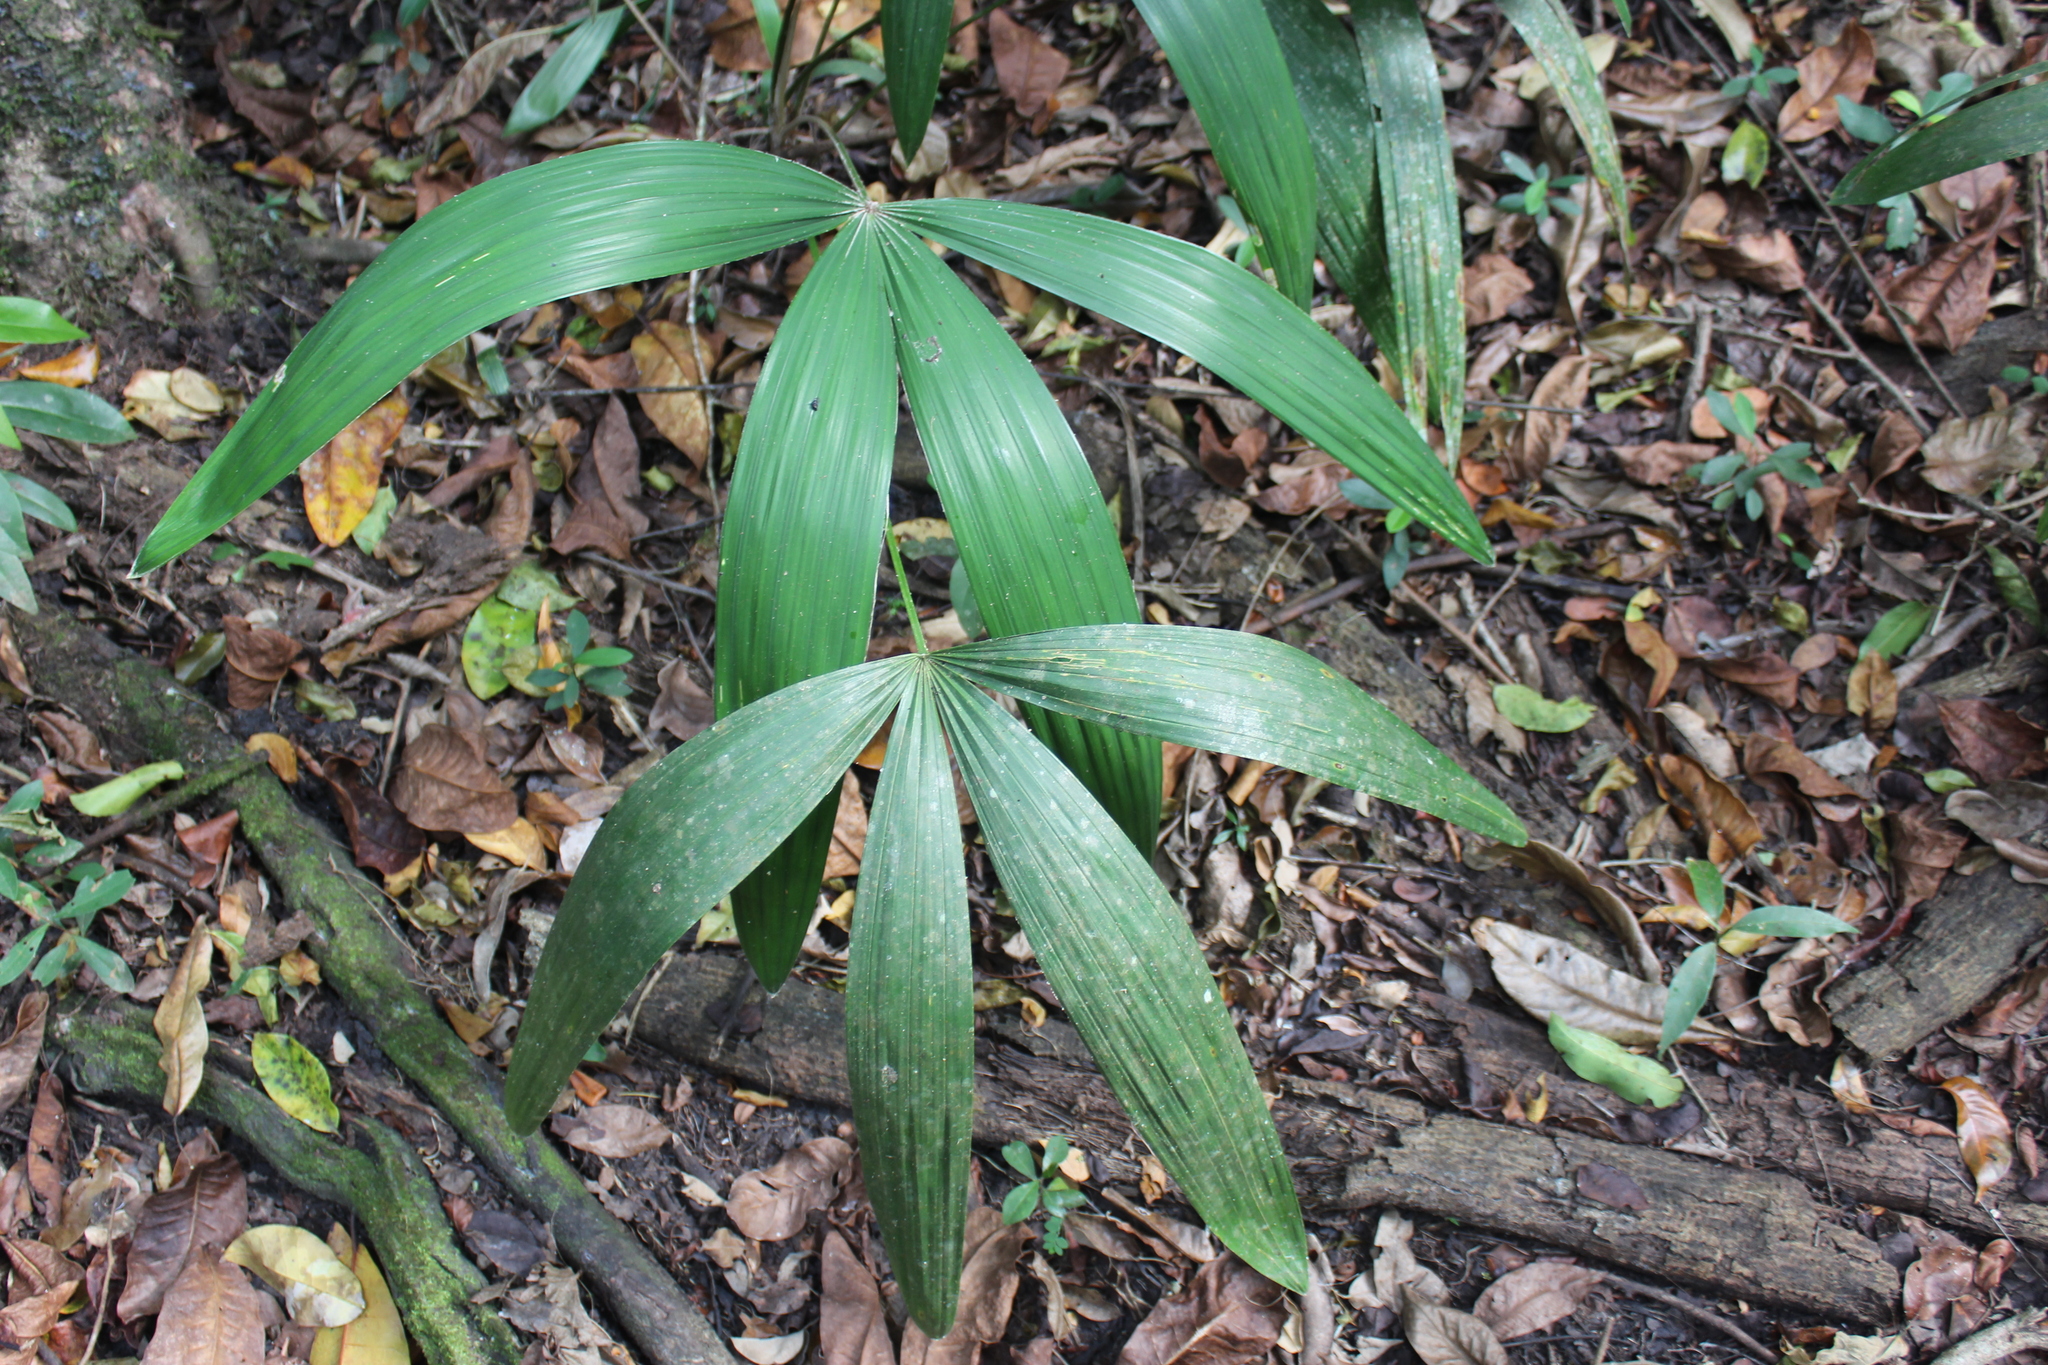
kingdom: Plantae
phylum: Tracheophyta
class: Liliopsida
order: Arecales
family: Arecaceae
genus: Cryosophila
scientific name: Cryosophila stauracantha
